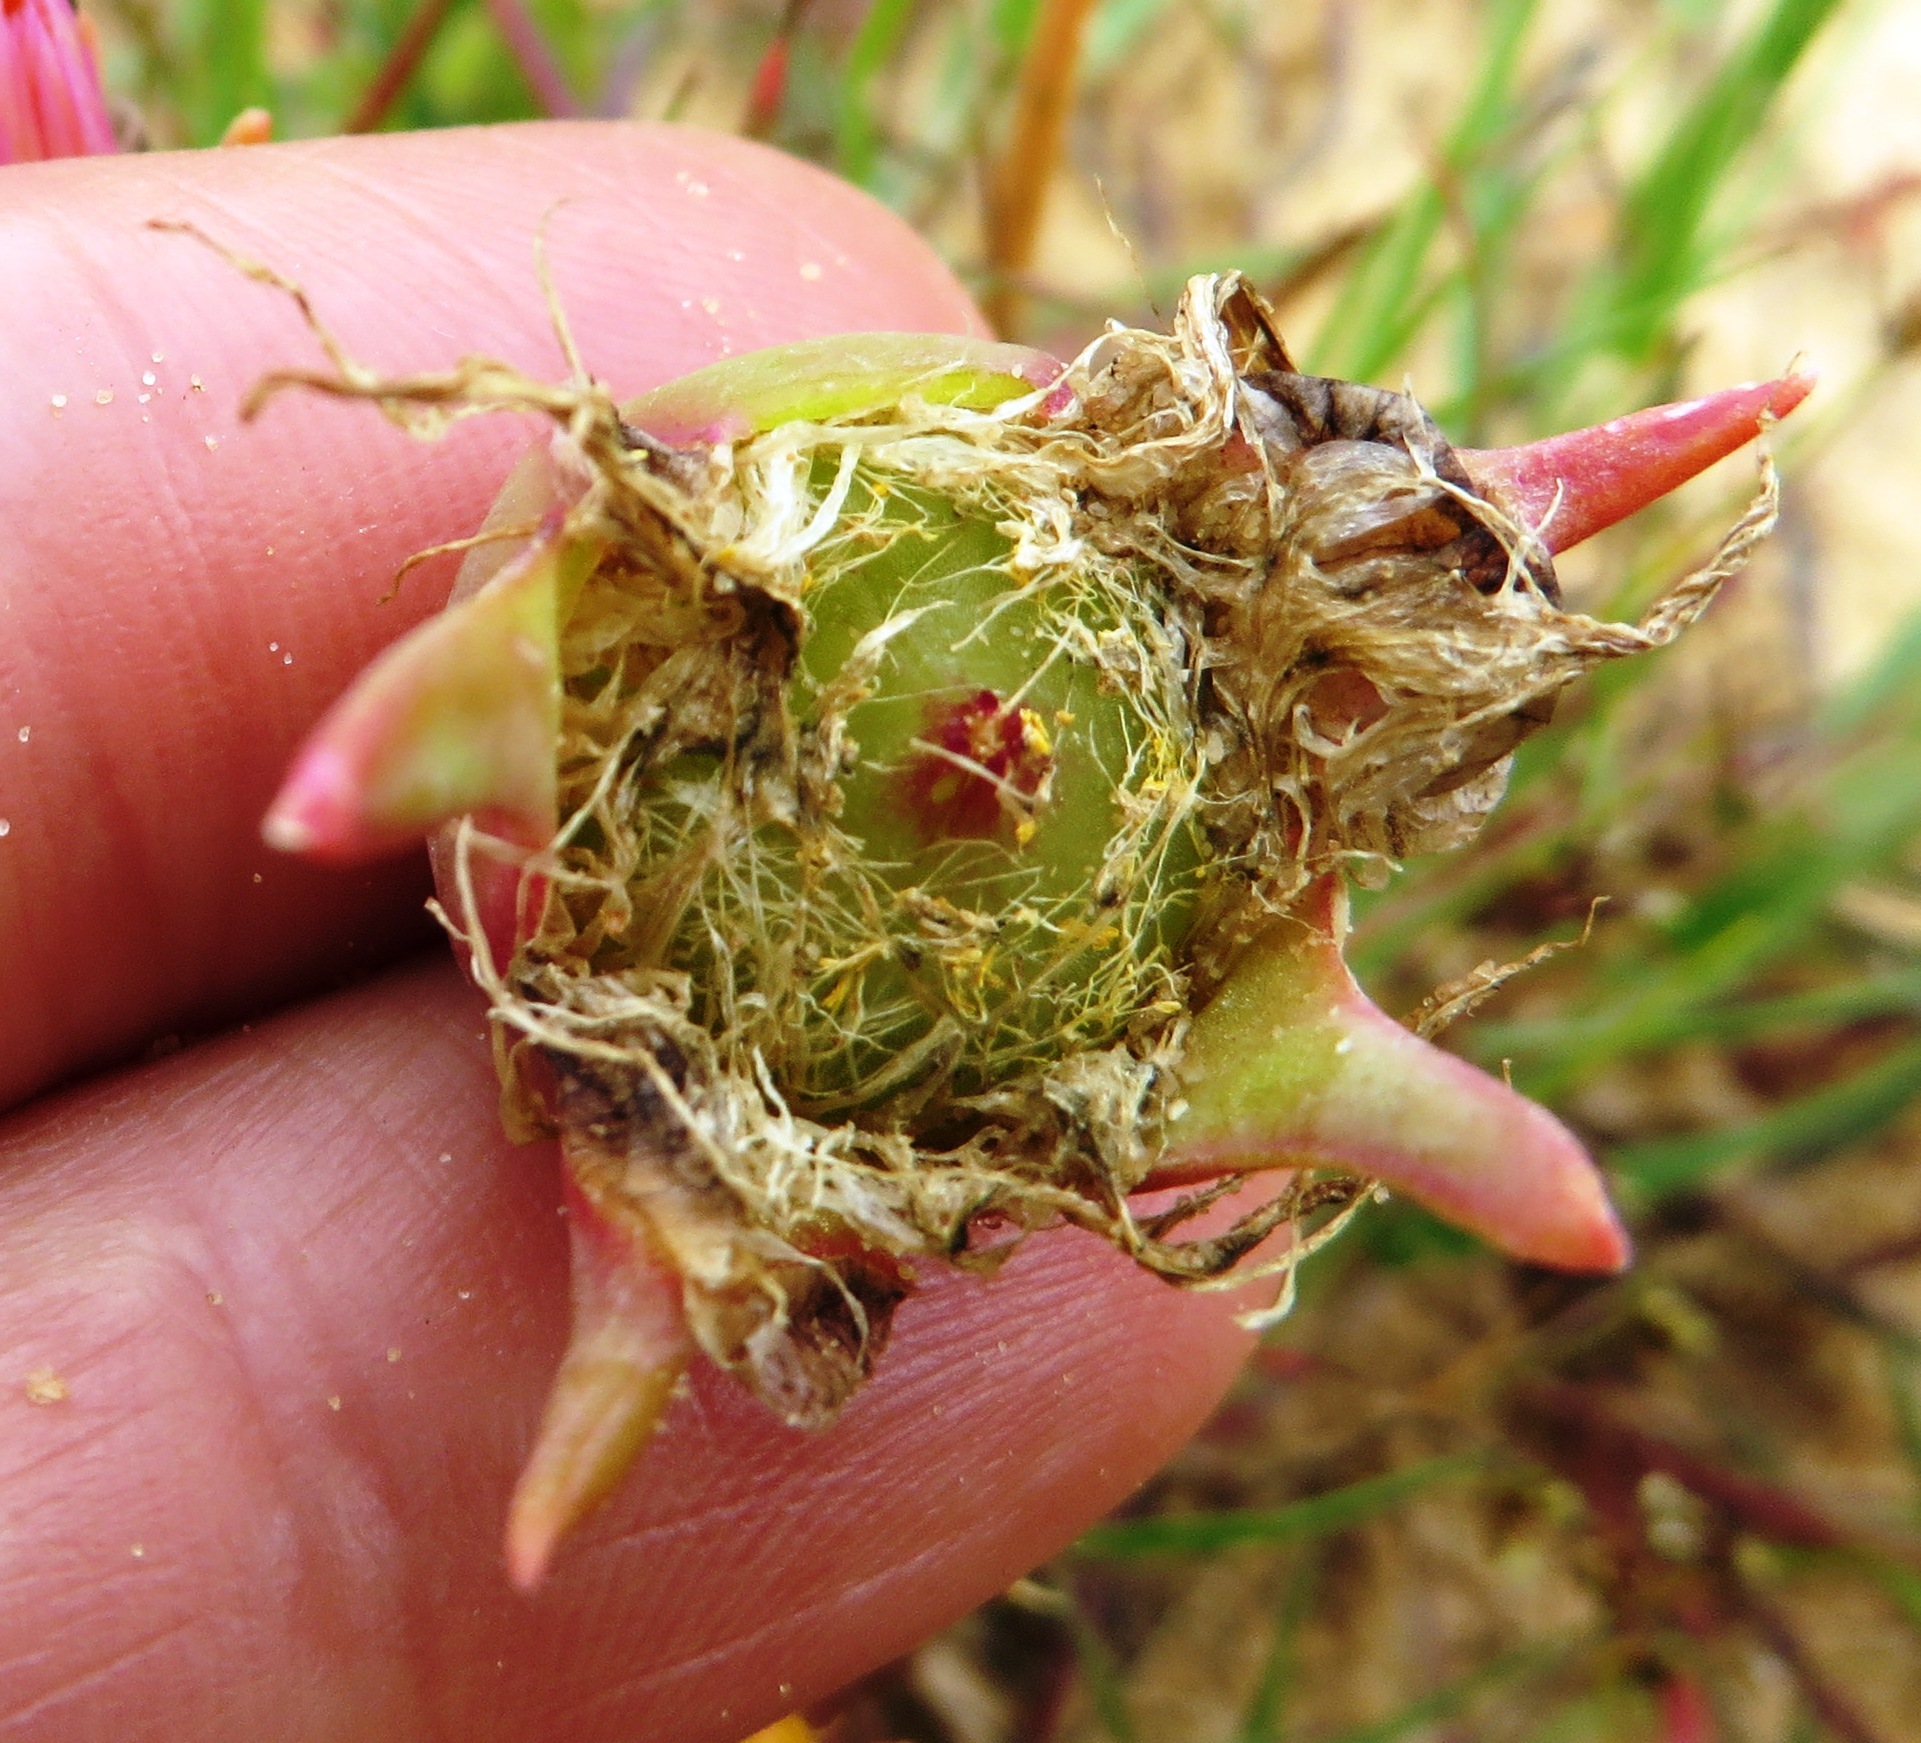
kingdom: Plantae
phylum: Tracheophyta
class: Magnoliopsida
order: Caryophyllales
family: Aizoaceae
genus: Hymenogyne
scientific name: Hymenogyne glabra
